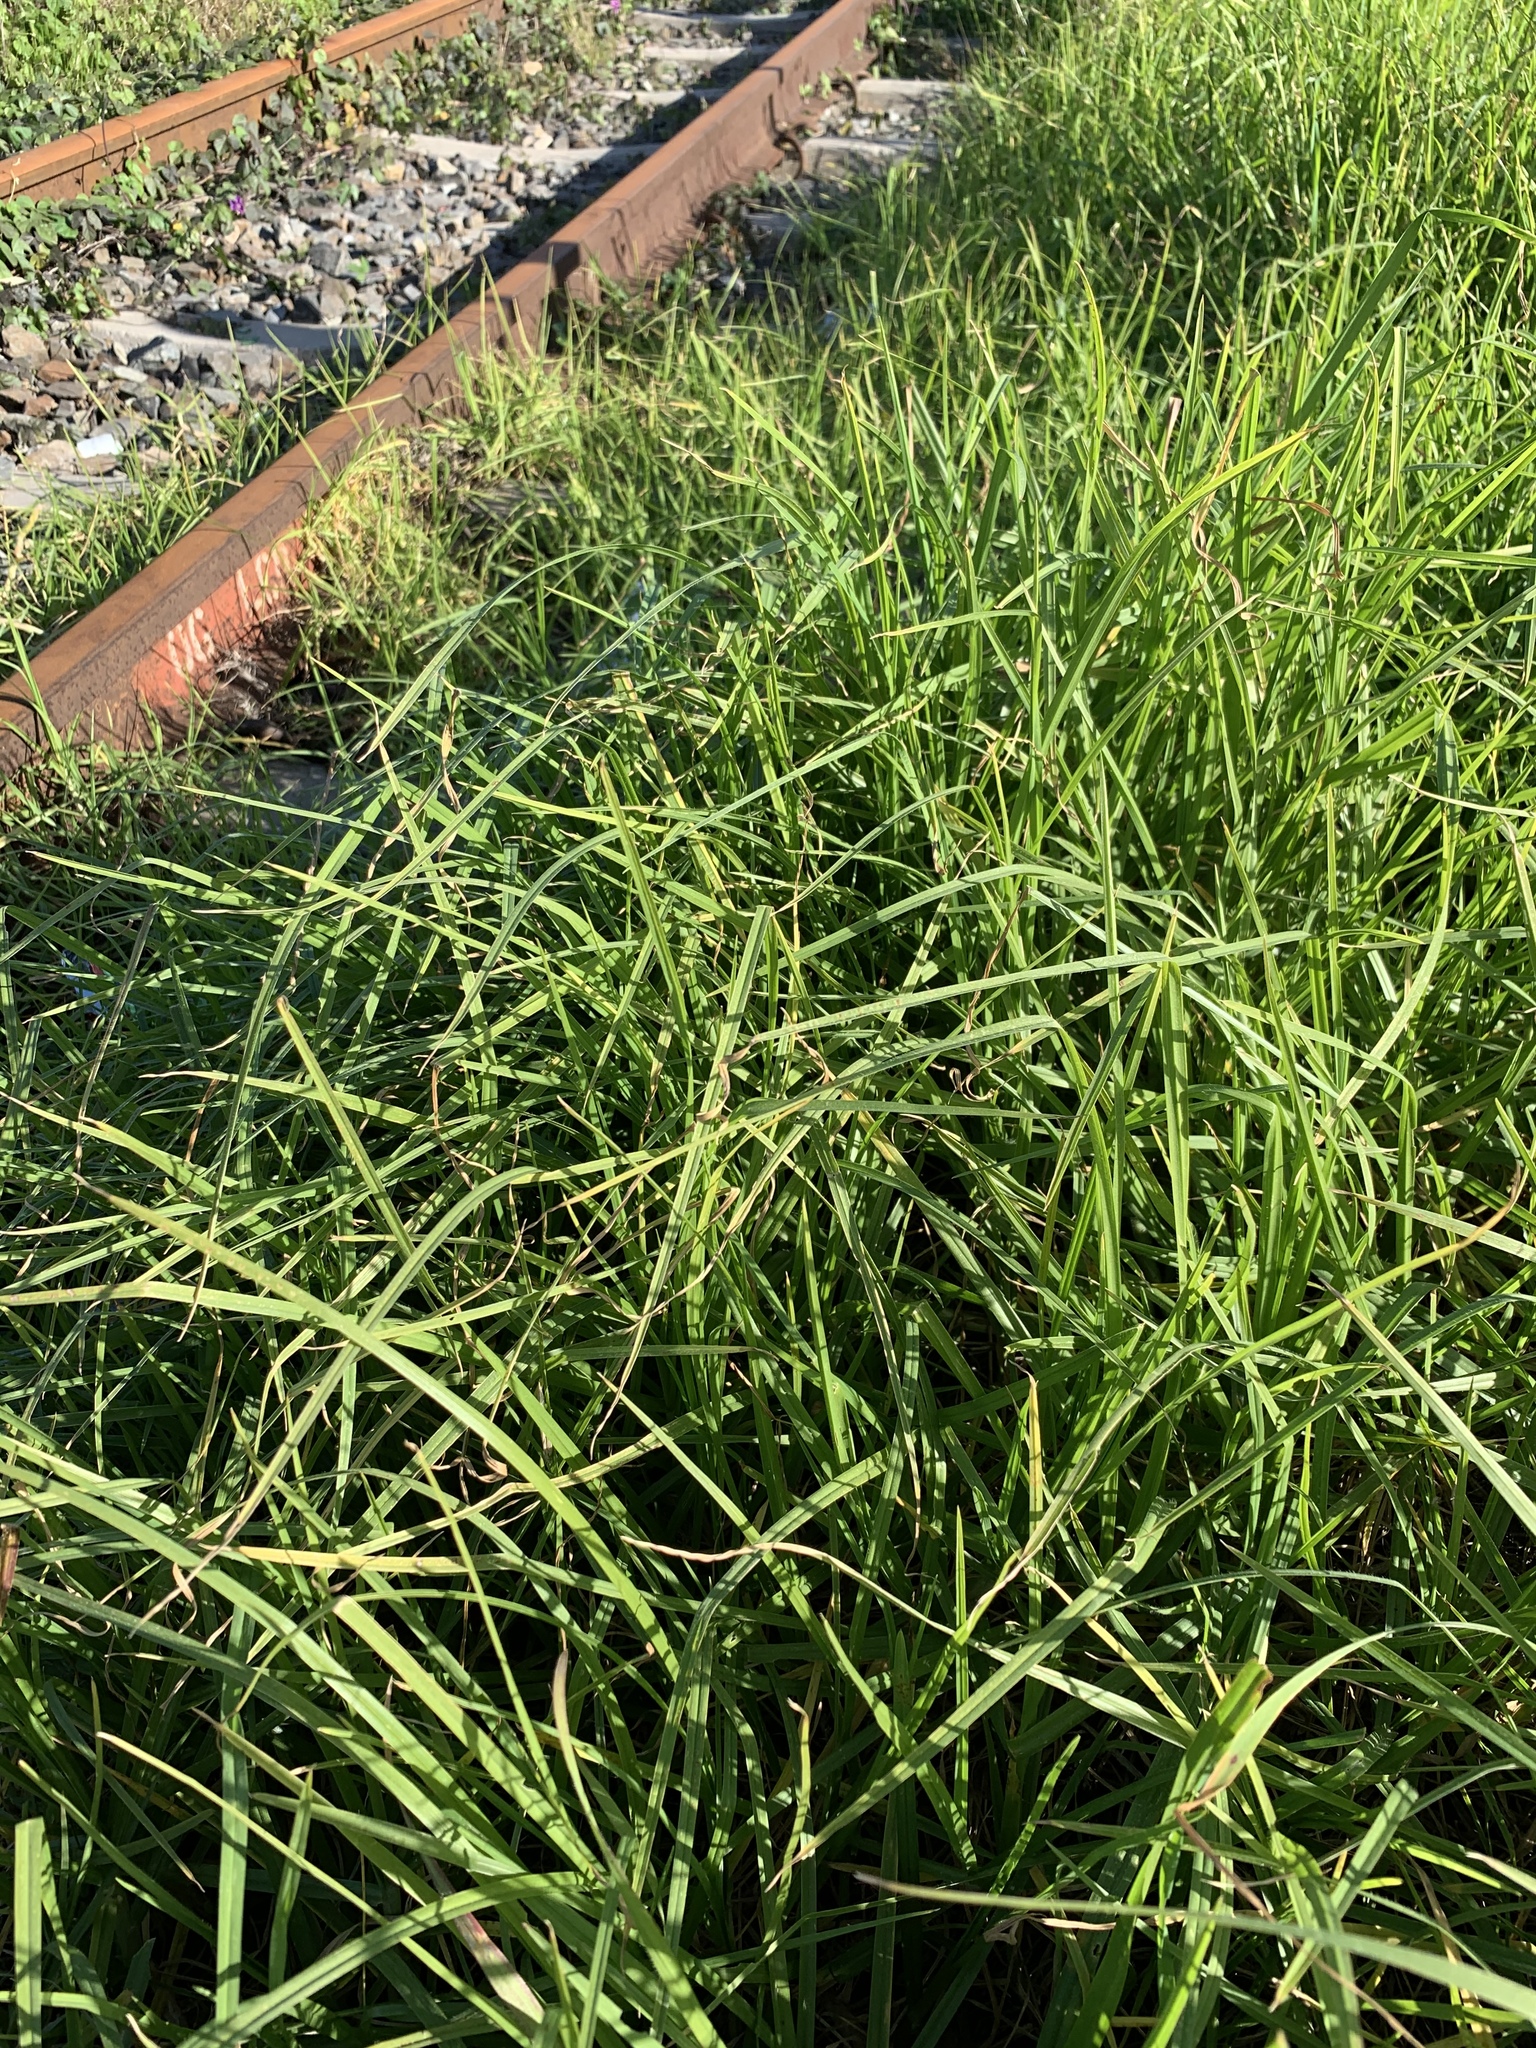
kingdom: Plantae
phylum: Tracheophyta
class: Liliopsida
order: Poales
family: Poaceae
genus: Cenchrus
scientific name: Cenchrus clandestinus
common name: Kikuyugrass
